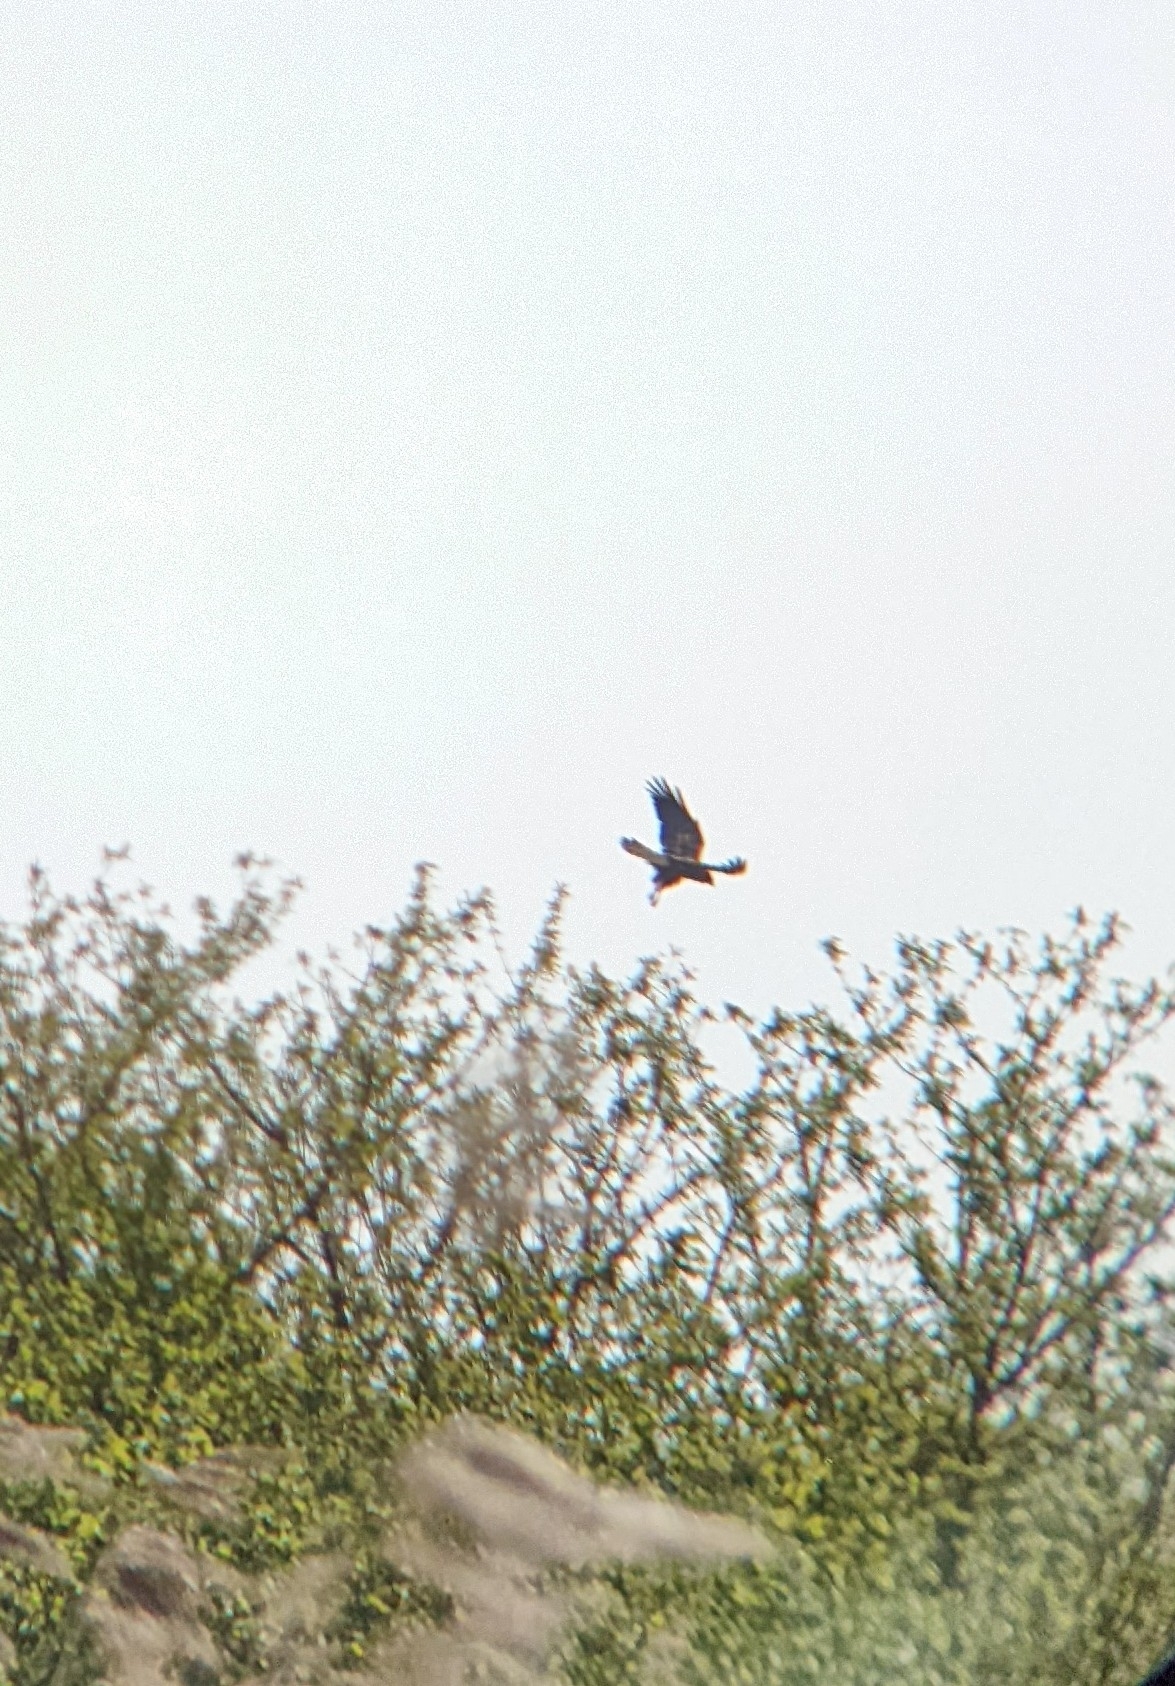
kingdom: Animalia
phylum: Chordata
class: Aves
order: Accipitriformes
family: Accipitridae
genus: Circus
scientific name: Circus aeruginosus
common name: Western marsh harrier
